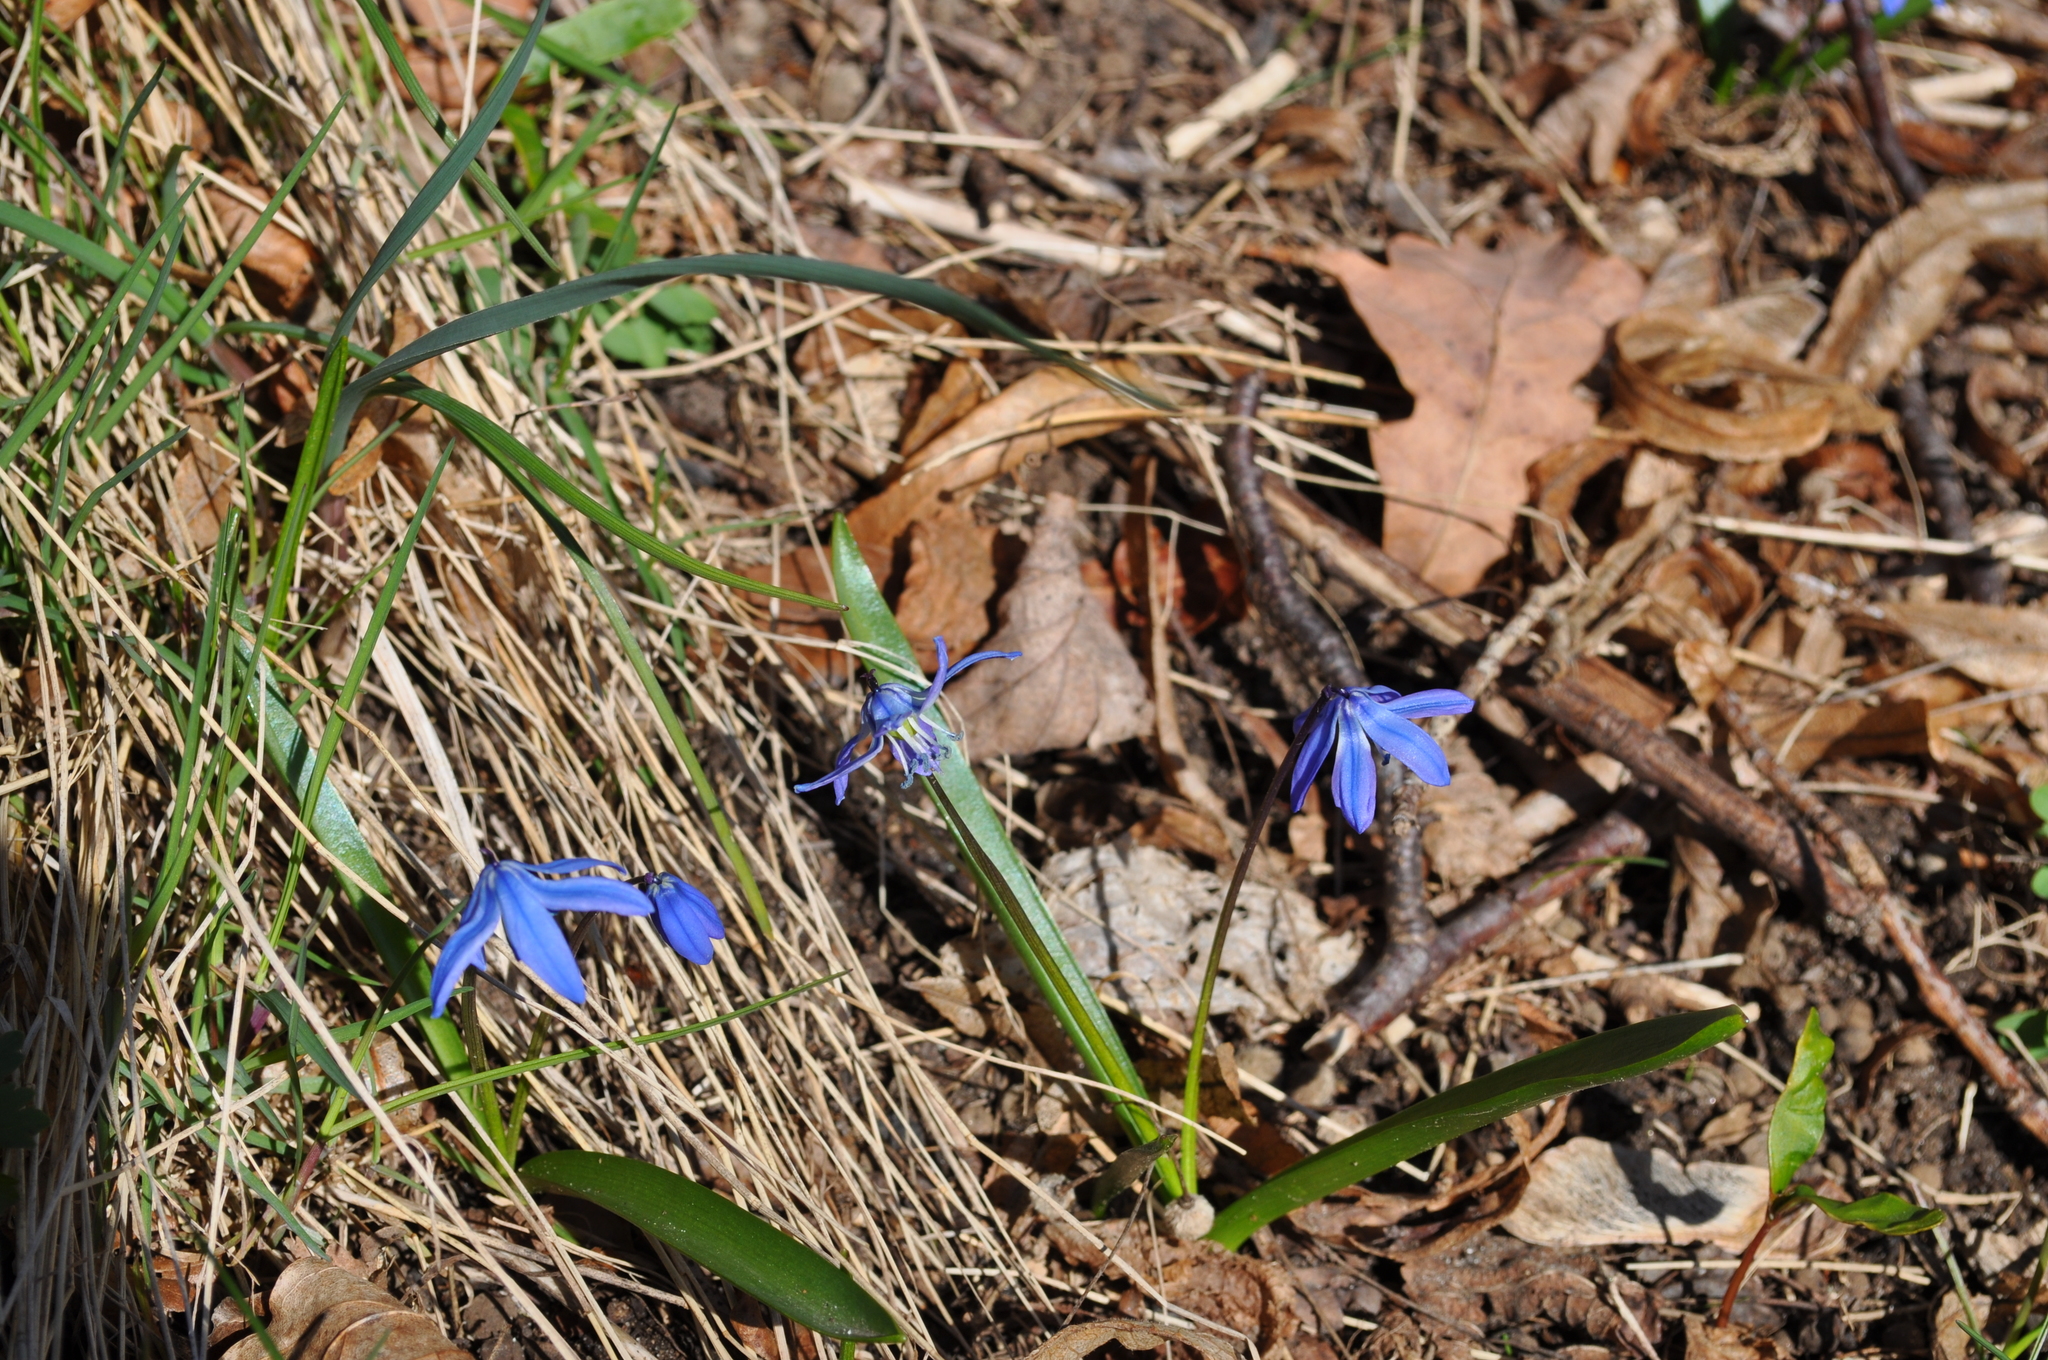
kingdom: Plantae
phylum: Tracheophyta
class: Liliopsida
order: Asparagales
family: Asparagaceae
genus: Scilla
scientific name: Scilla siberica
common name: Siberian squill
